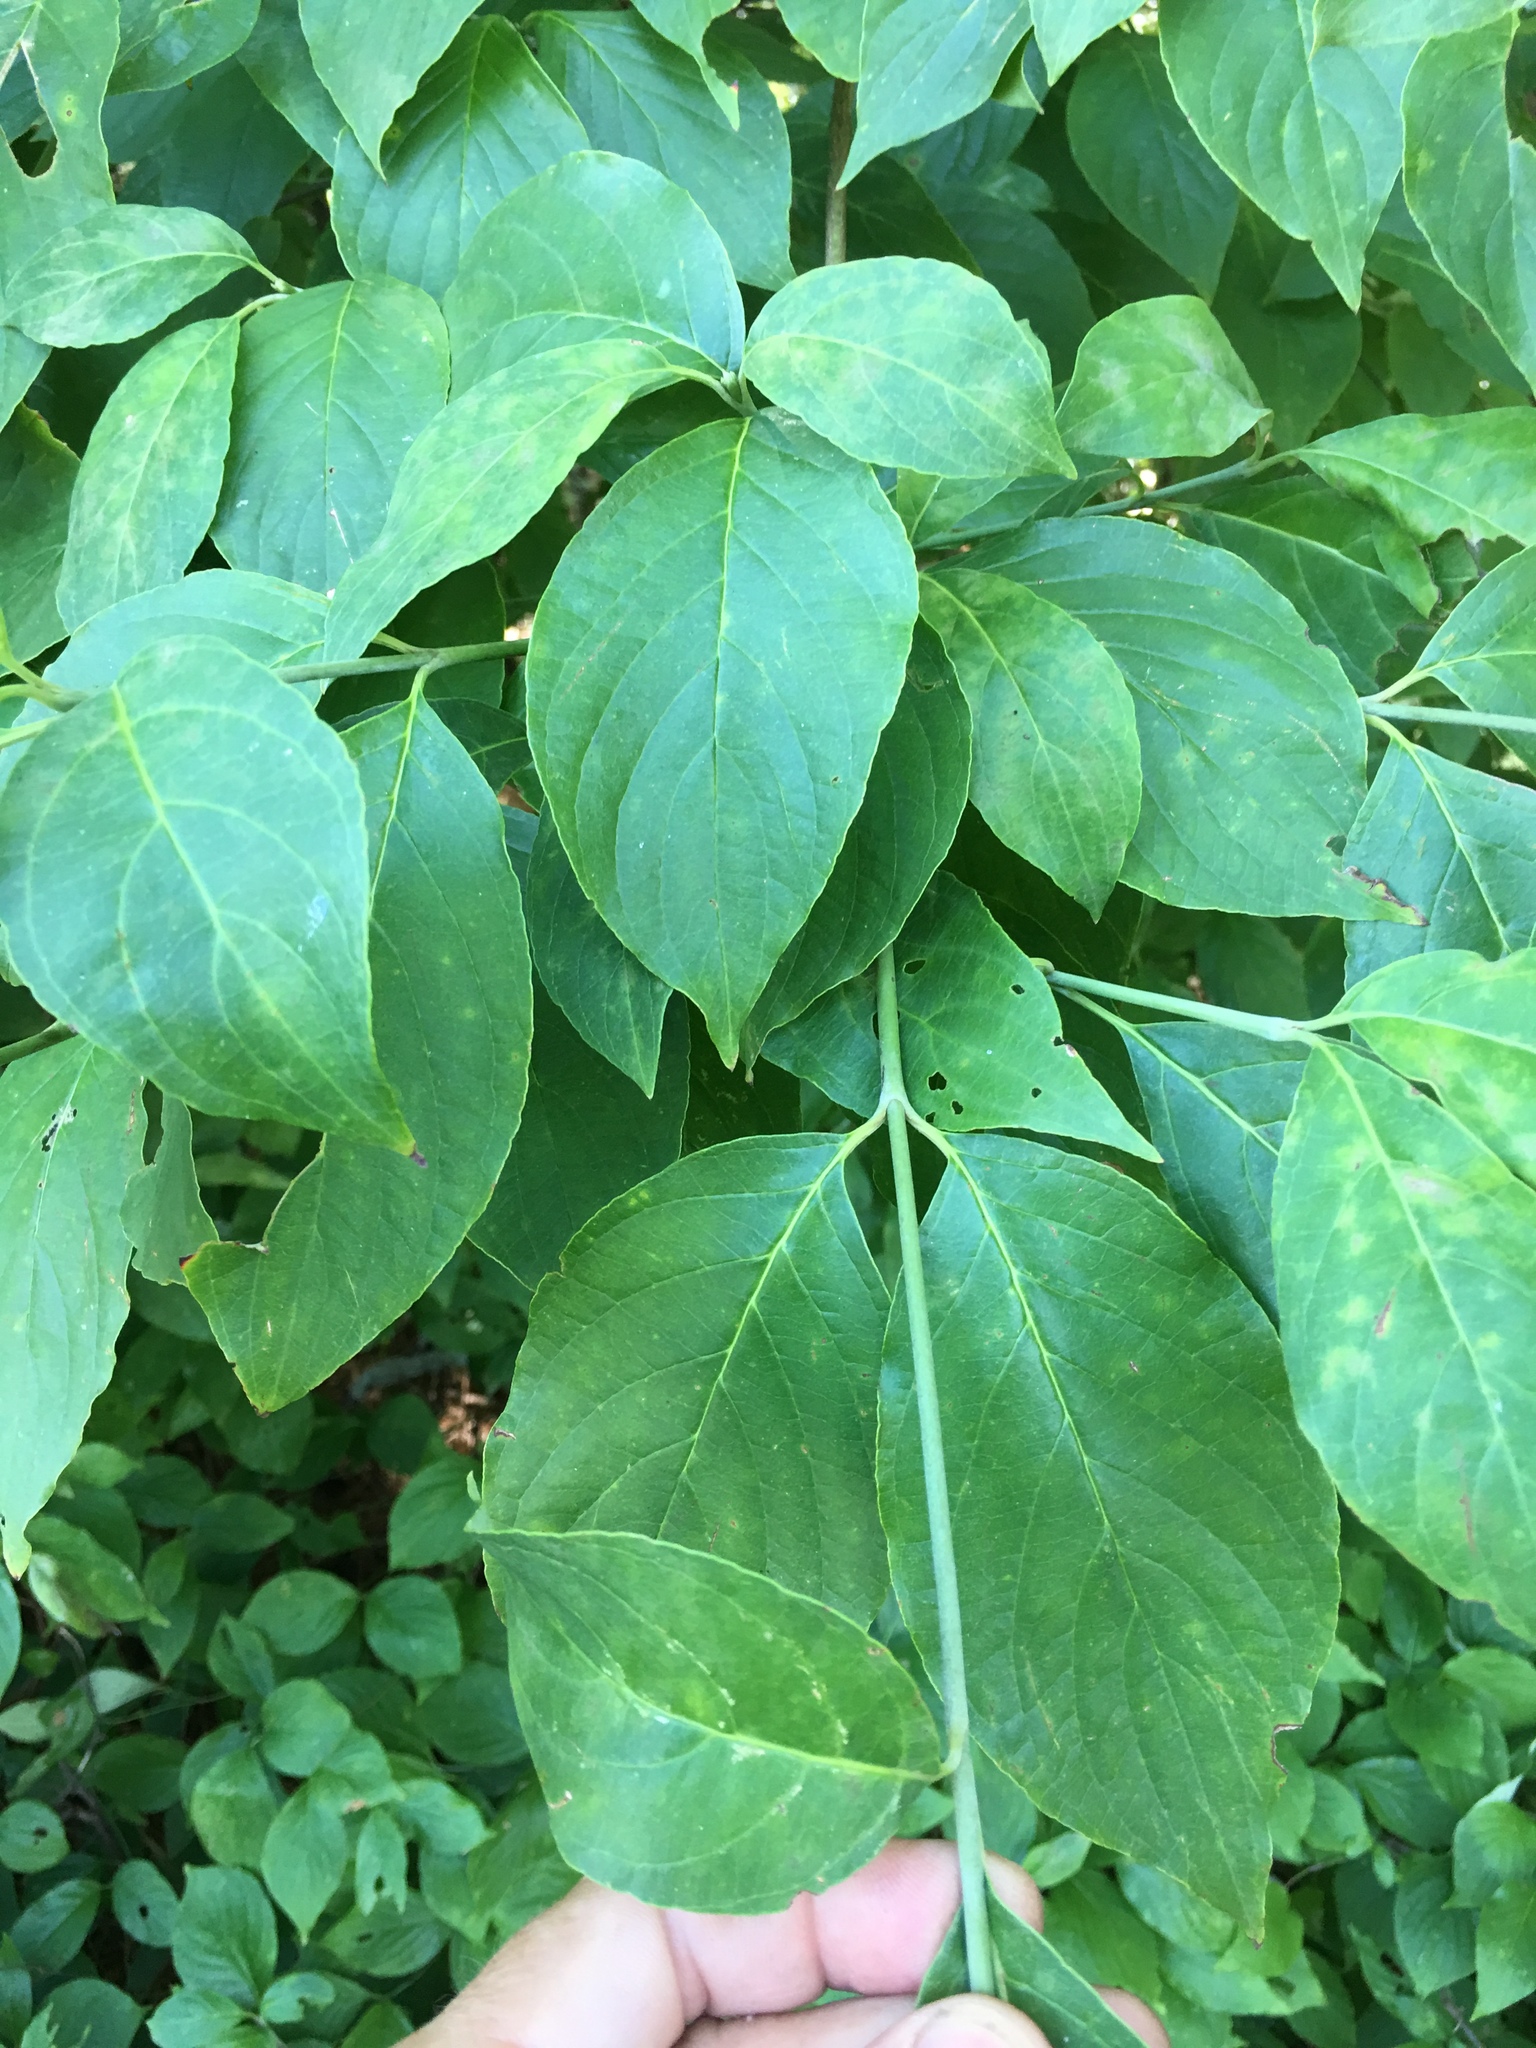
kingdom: Plantae
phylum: Tracheophyta
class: Magnoliopsida
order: Cornales
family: Cornaceae
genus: Cornus
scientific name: Cornus florida
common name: Flowering dogwood
